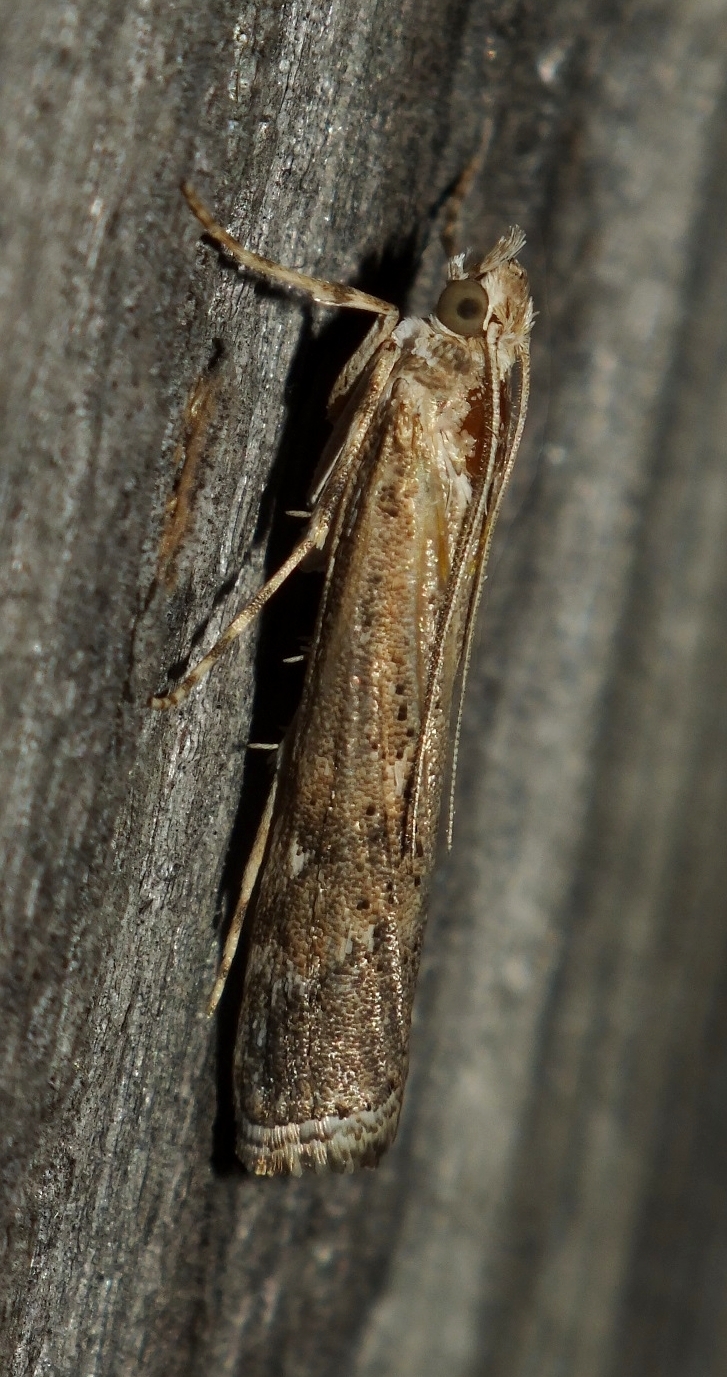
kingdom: Animalia
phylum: Arthropoda
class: Insecta
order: Lepidoptera
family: Crambidae
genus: Talis
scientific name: Talis quercella
